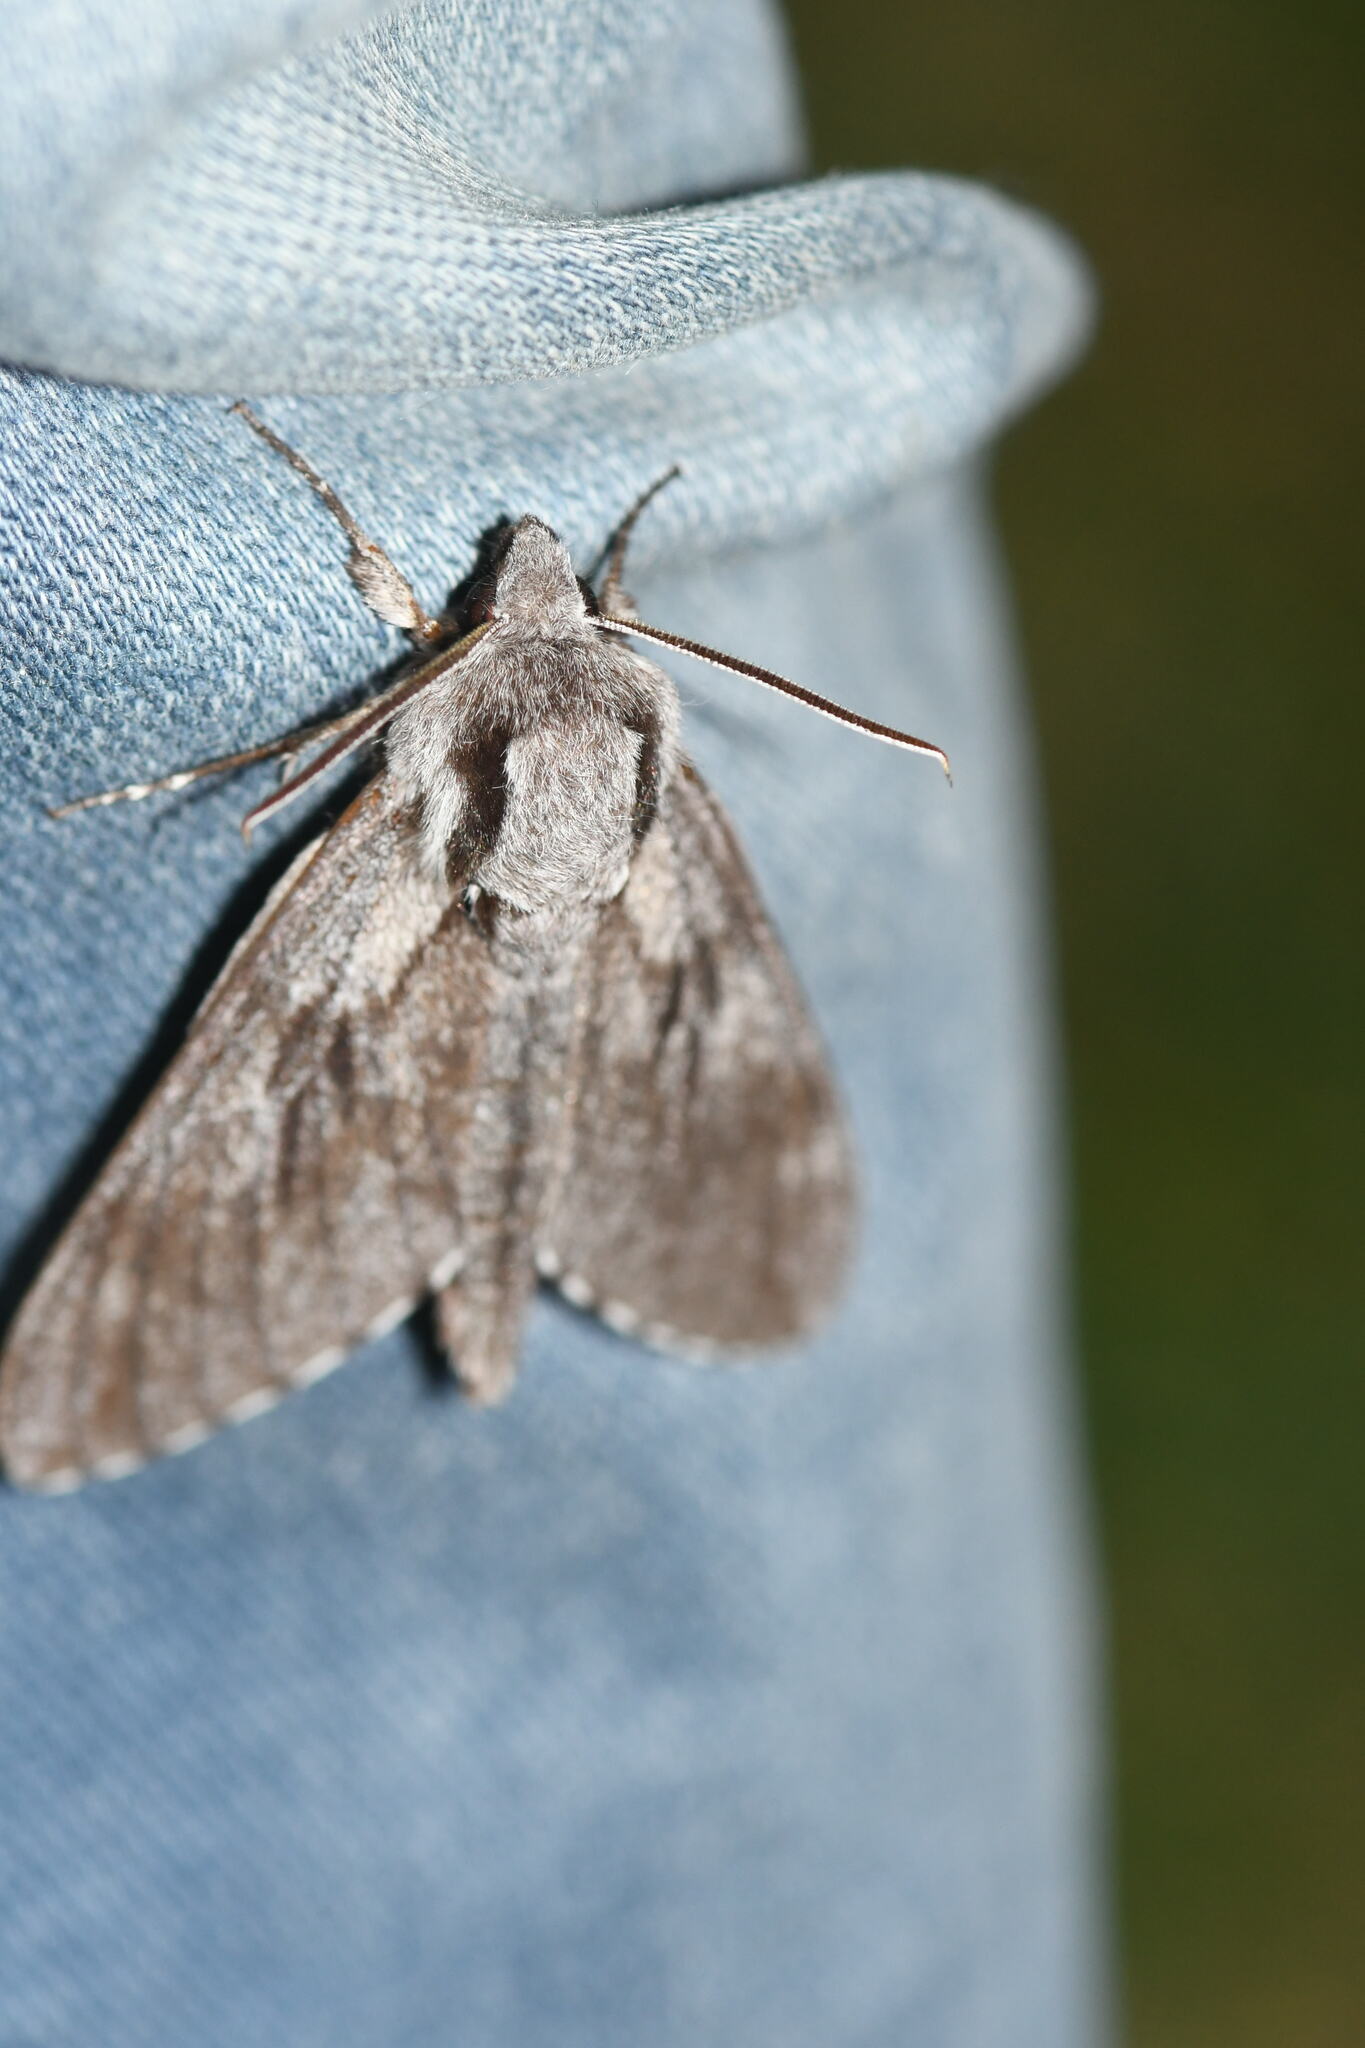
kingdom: Animalia
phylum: Arthropoda
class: Insecta
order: Lepidoptera
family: Sphingidae
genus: Sphinx
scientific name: Sphinx pinastri
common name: Pine hawk-moth
